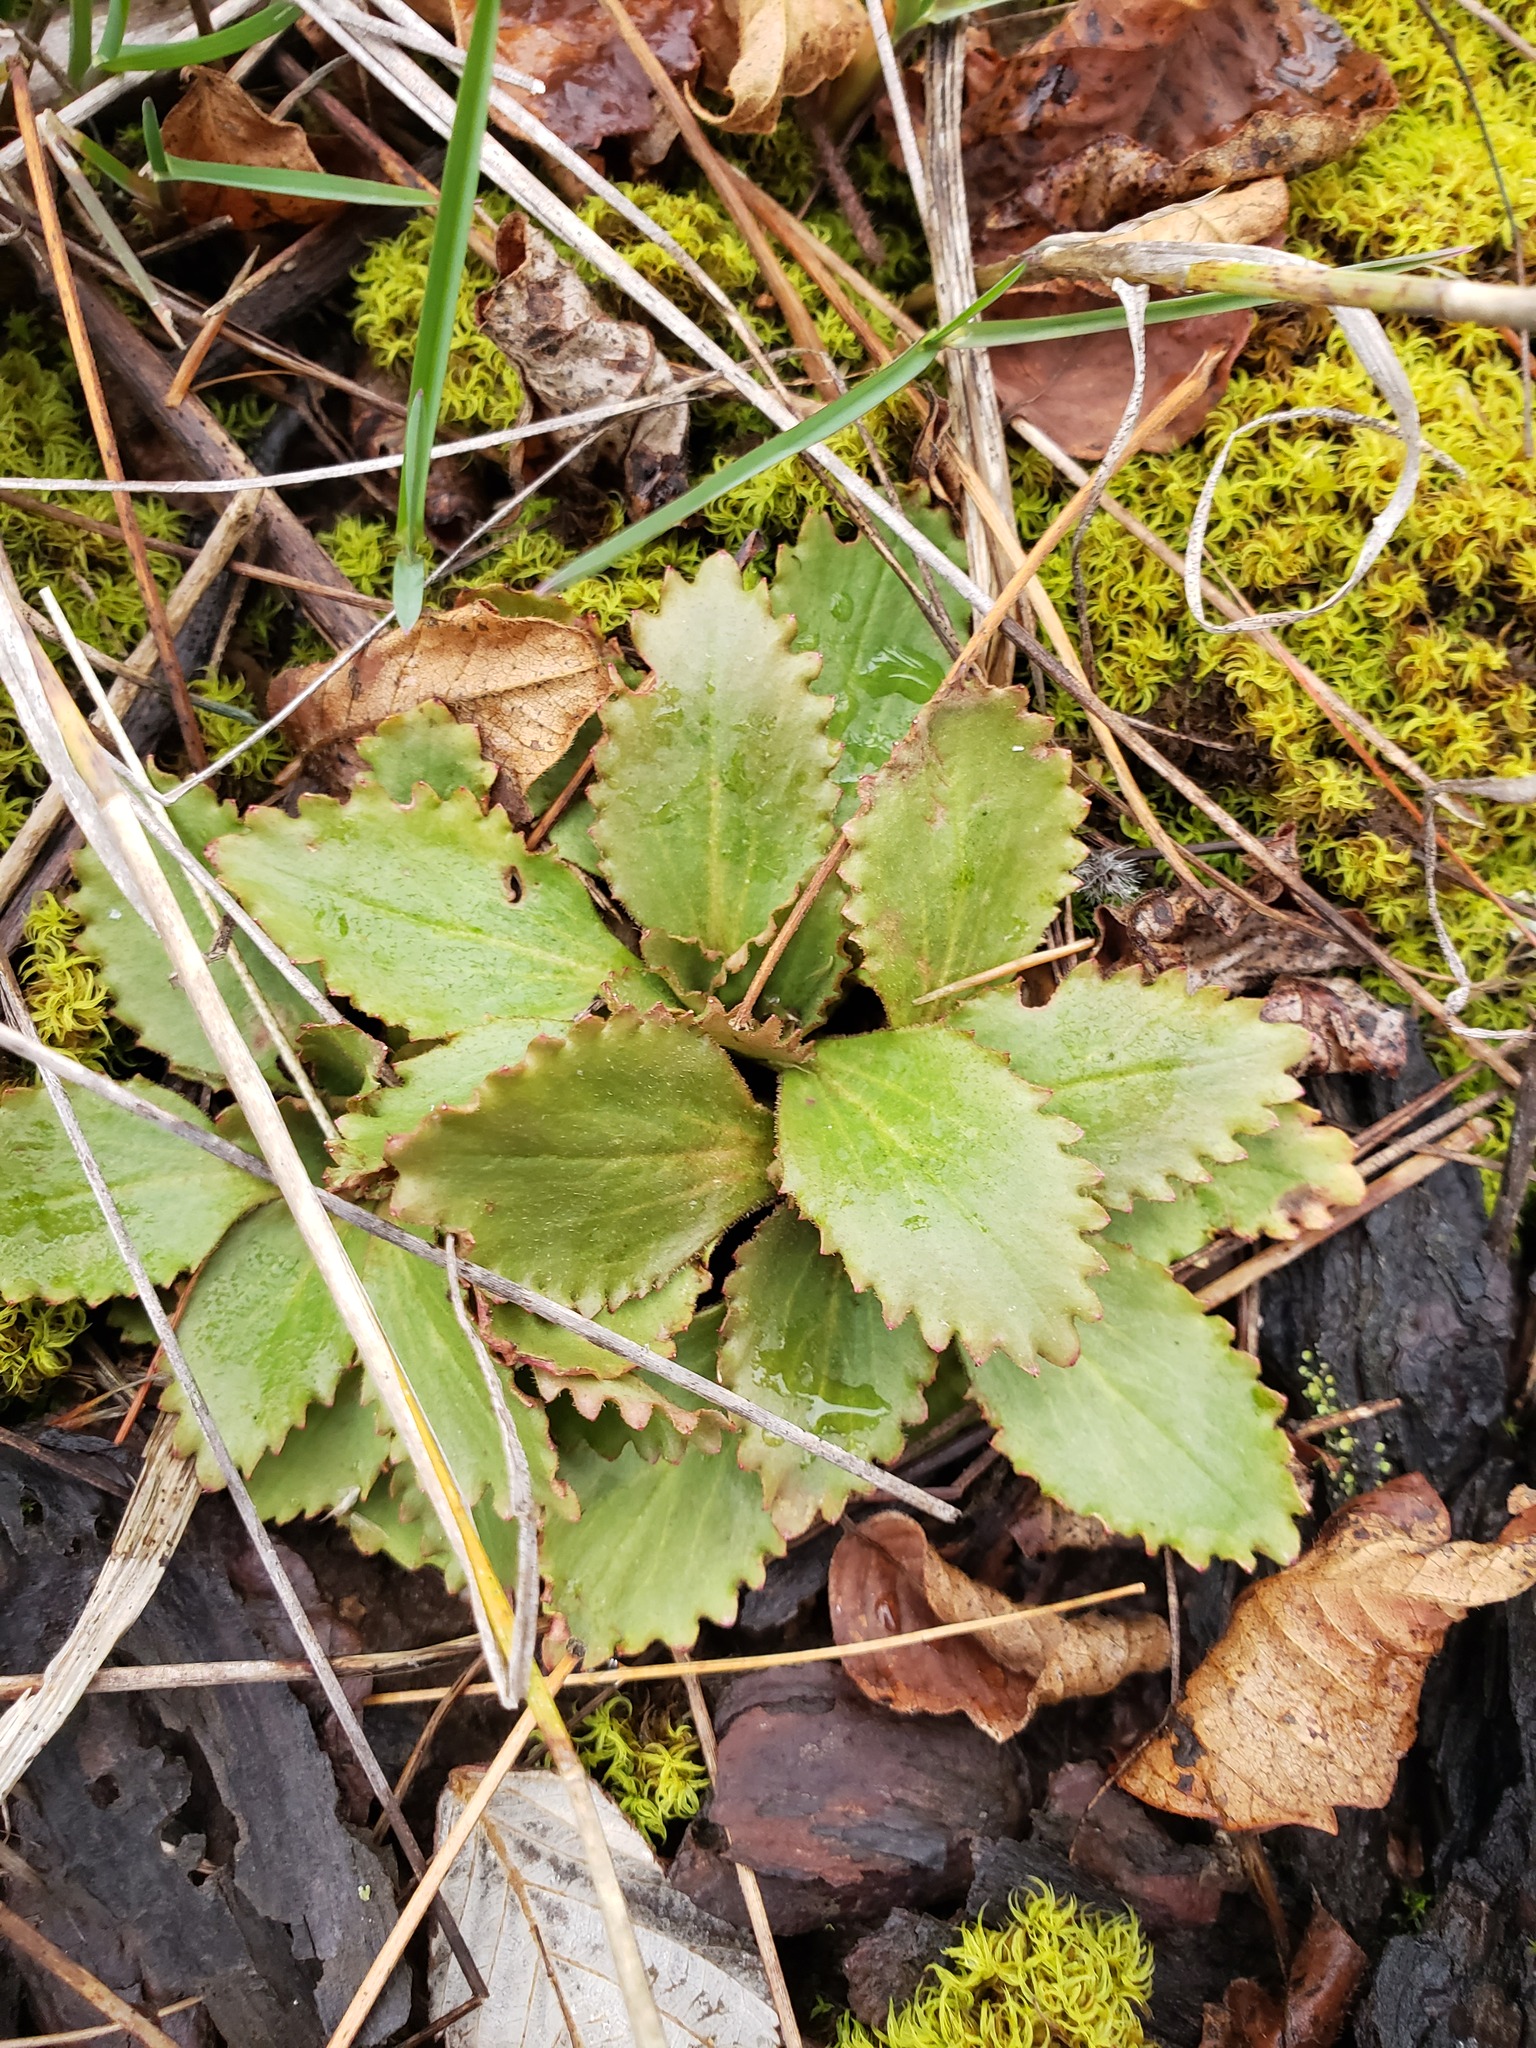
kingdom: Plantae
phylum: Tracheophyta
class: Magnoliopsida
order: Saxifragales
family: Saxifragaceae
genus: Micranthes
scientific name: Micranthes virginiensis
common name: Early saxifrage
